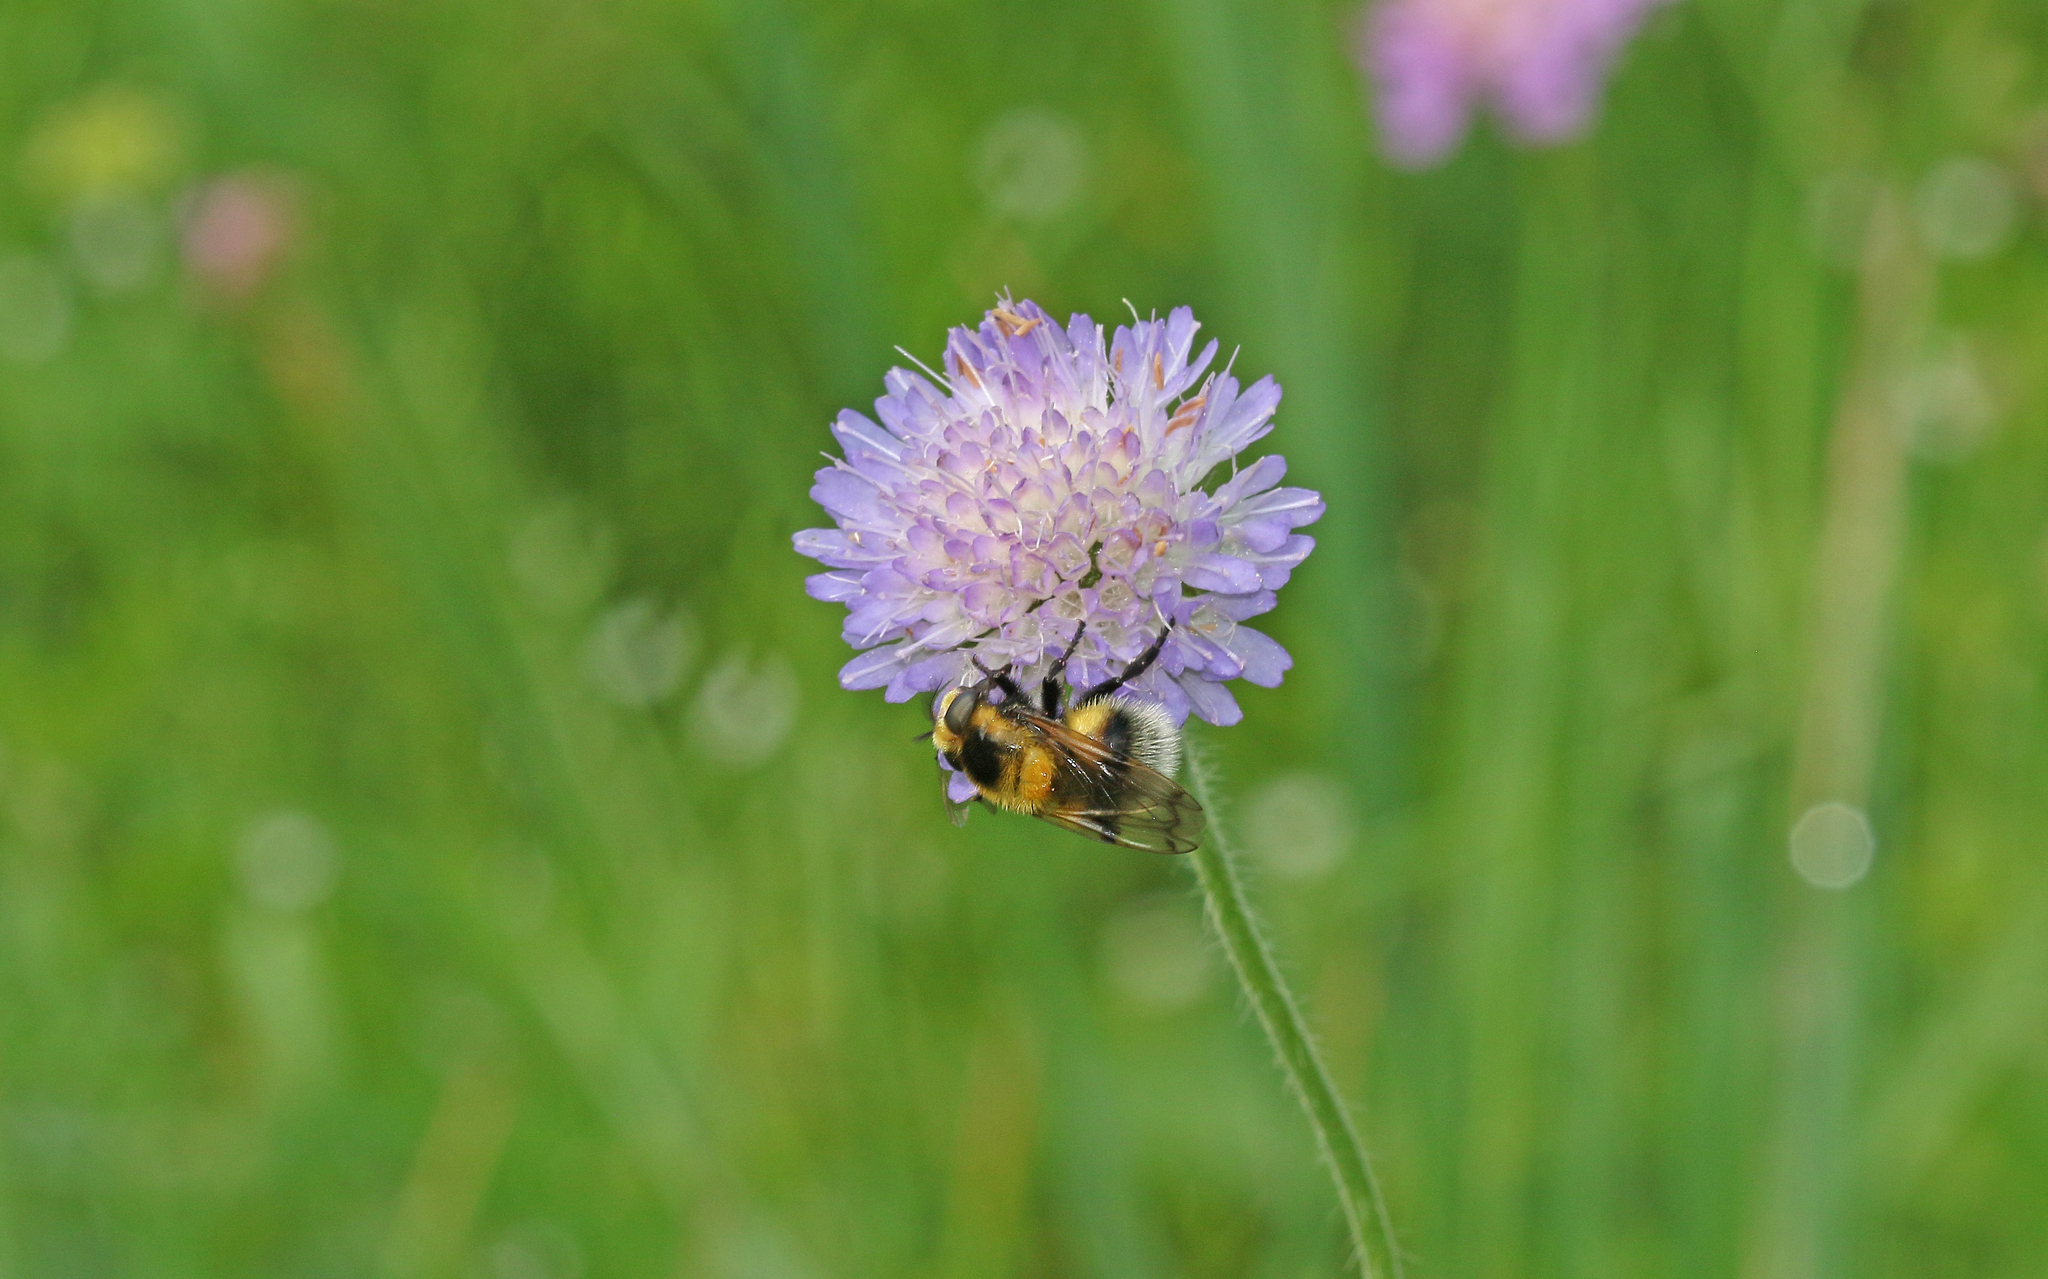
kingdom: Animalia
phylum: Arthropoda
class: Insecta
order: Diptera
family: Syrphidae
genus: Volucella
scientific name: Volucella bombylans
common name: Bumble bee hover fly
